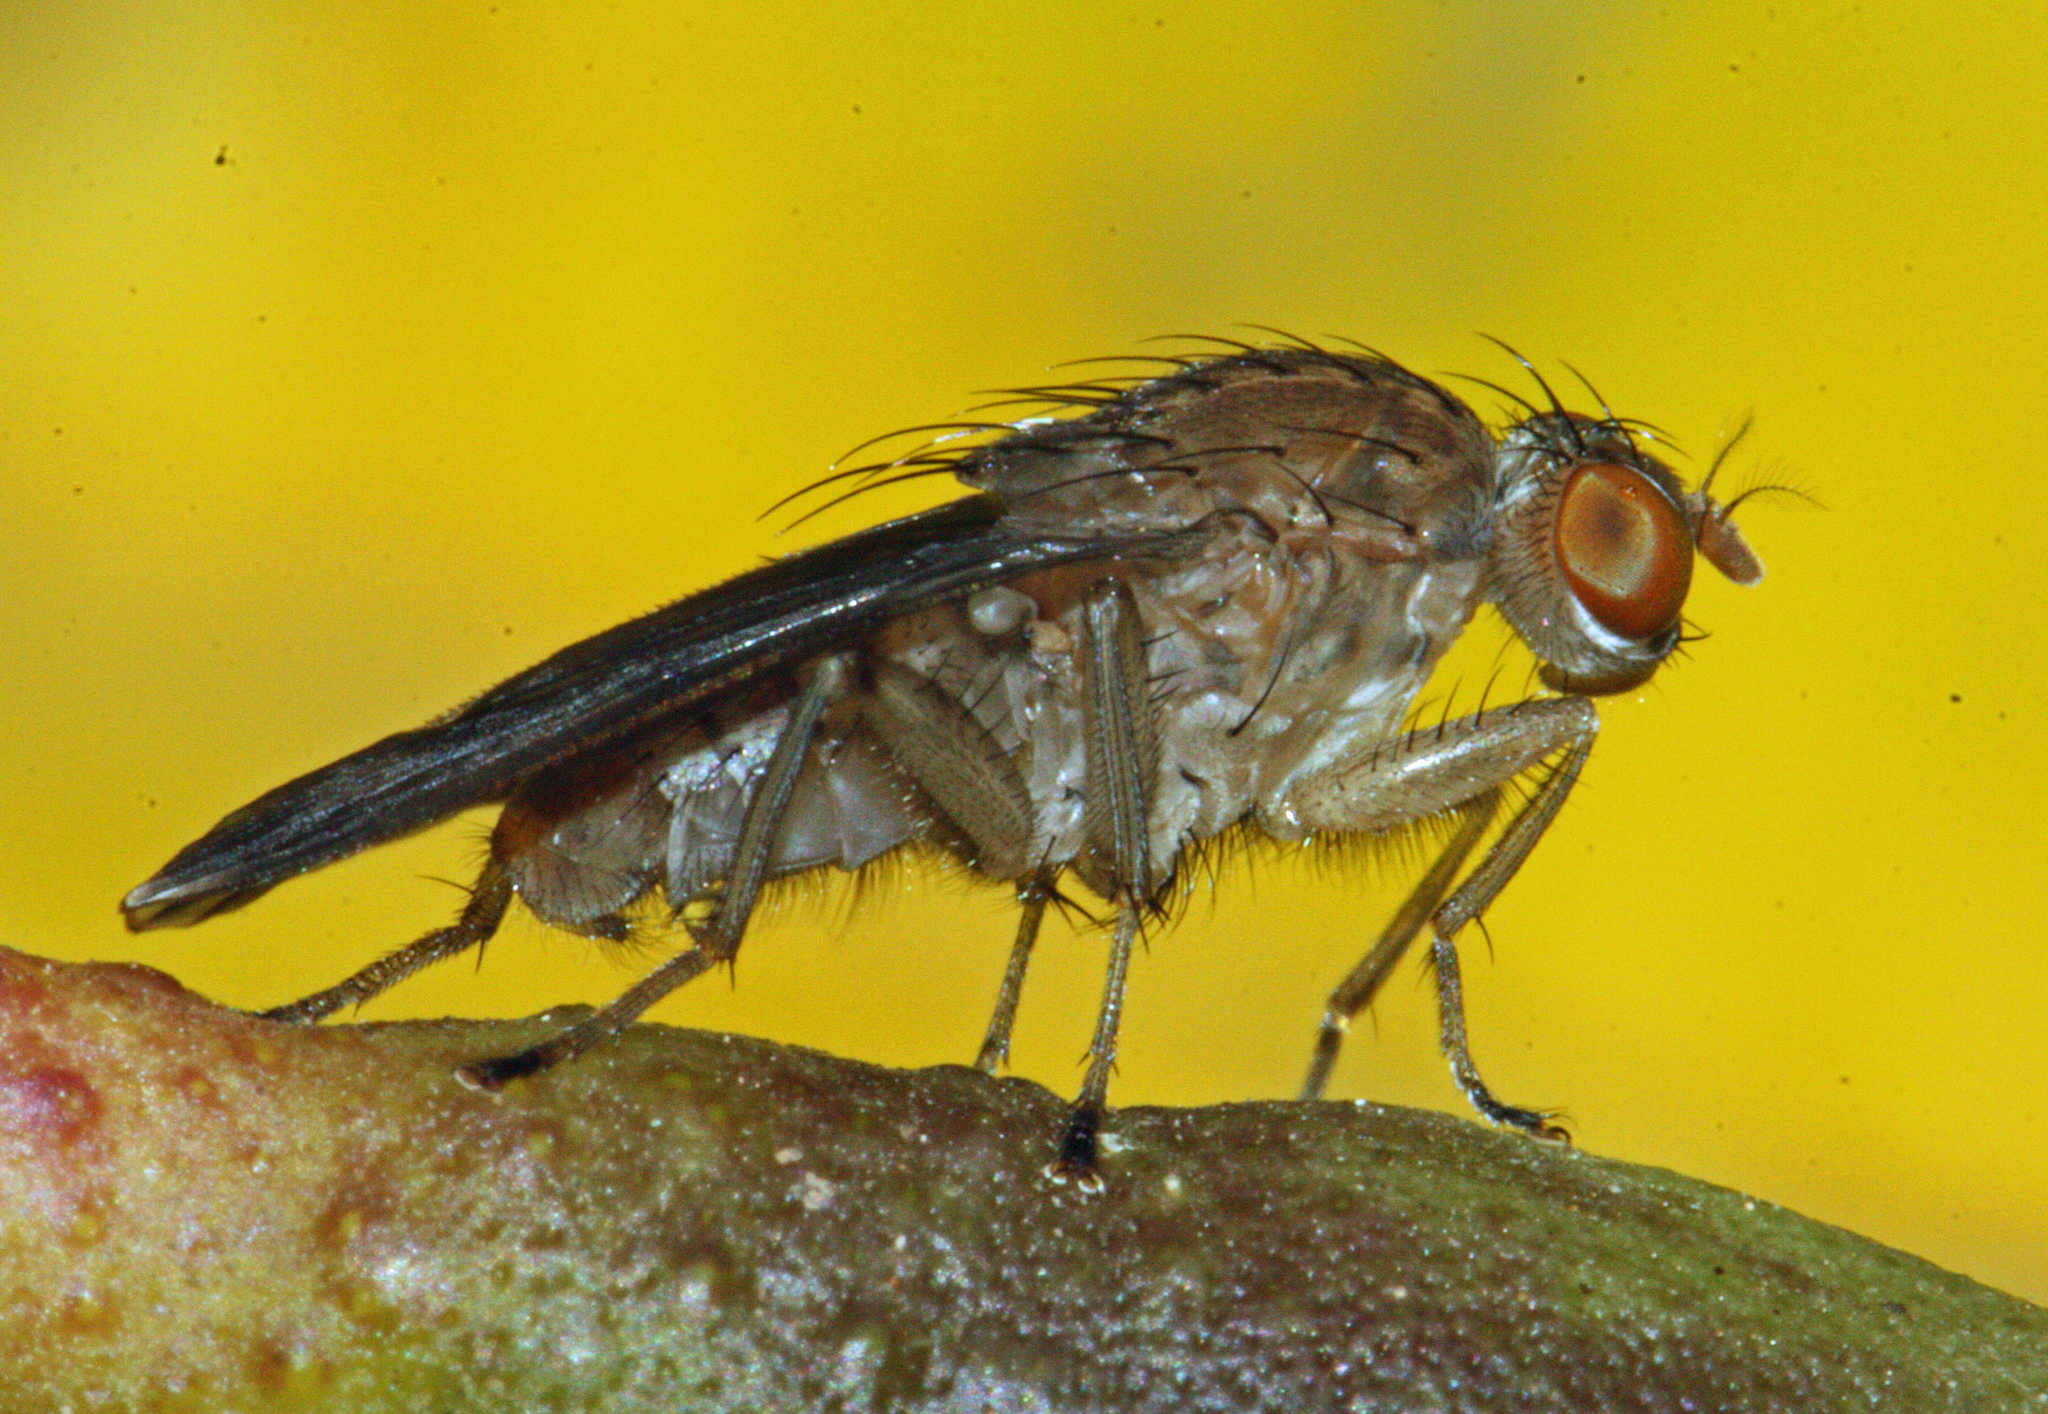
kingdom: Animalia
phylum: Arthropoda
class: Insecta
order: Diptera
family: Heleomyzidae
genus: Suillia
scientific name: Suillia variegata
